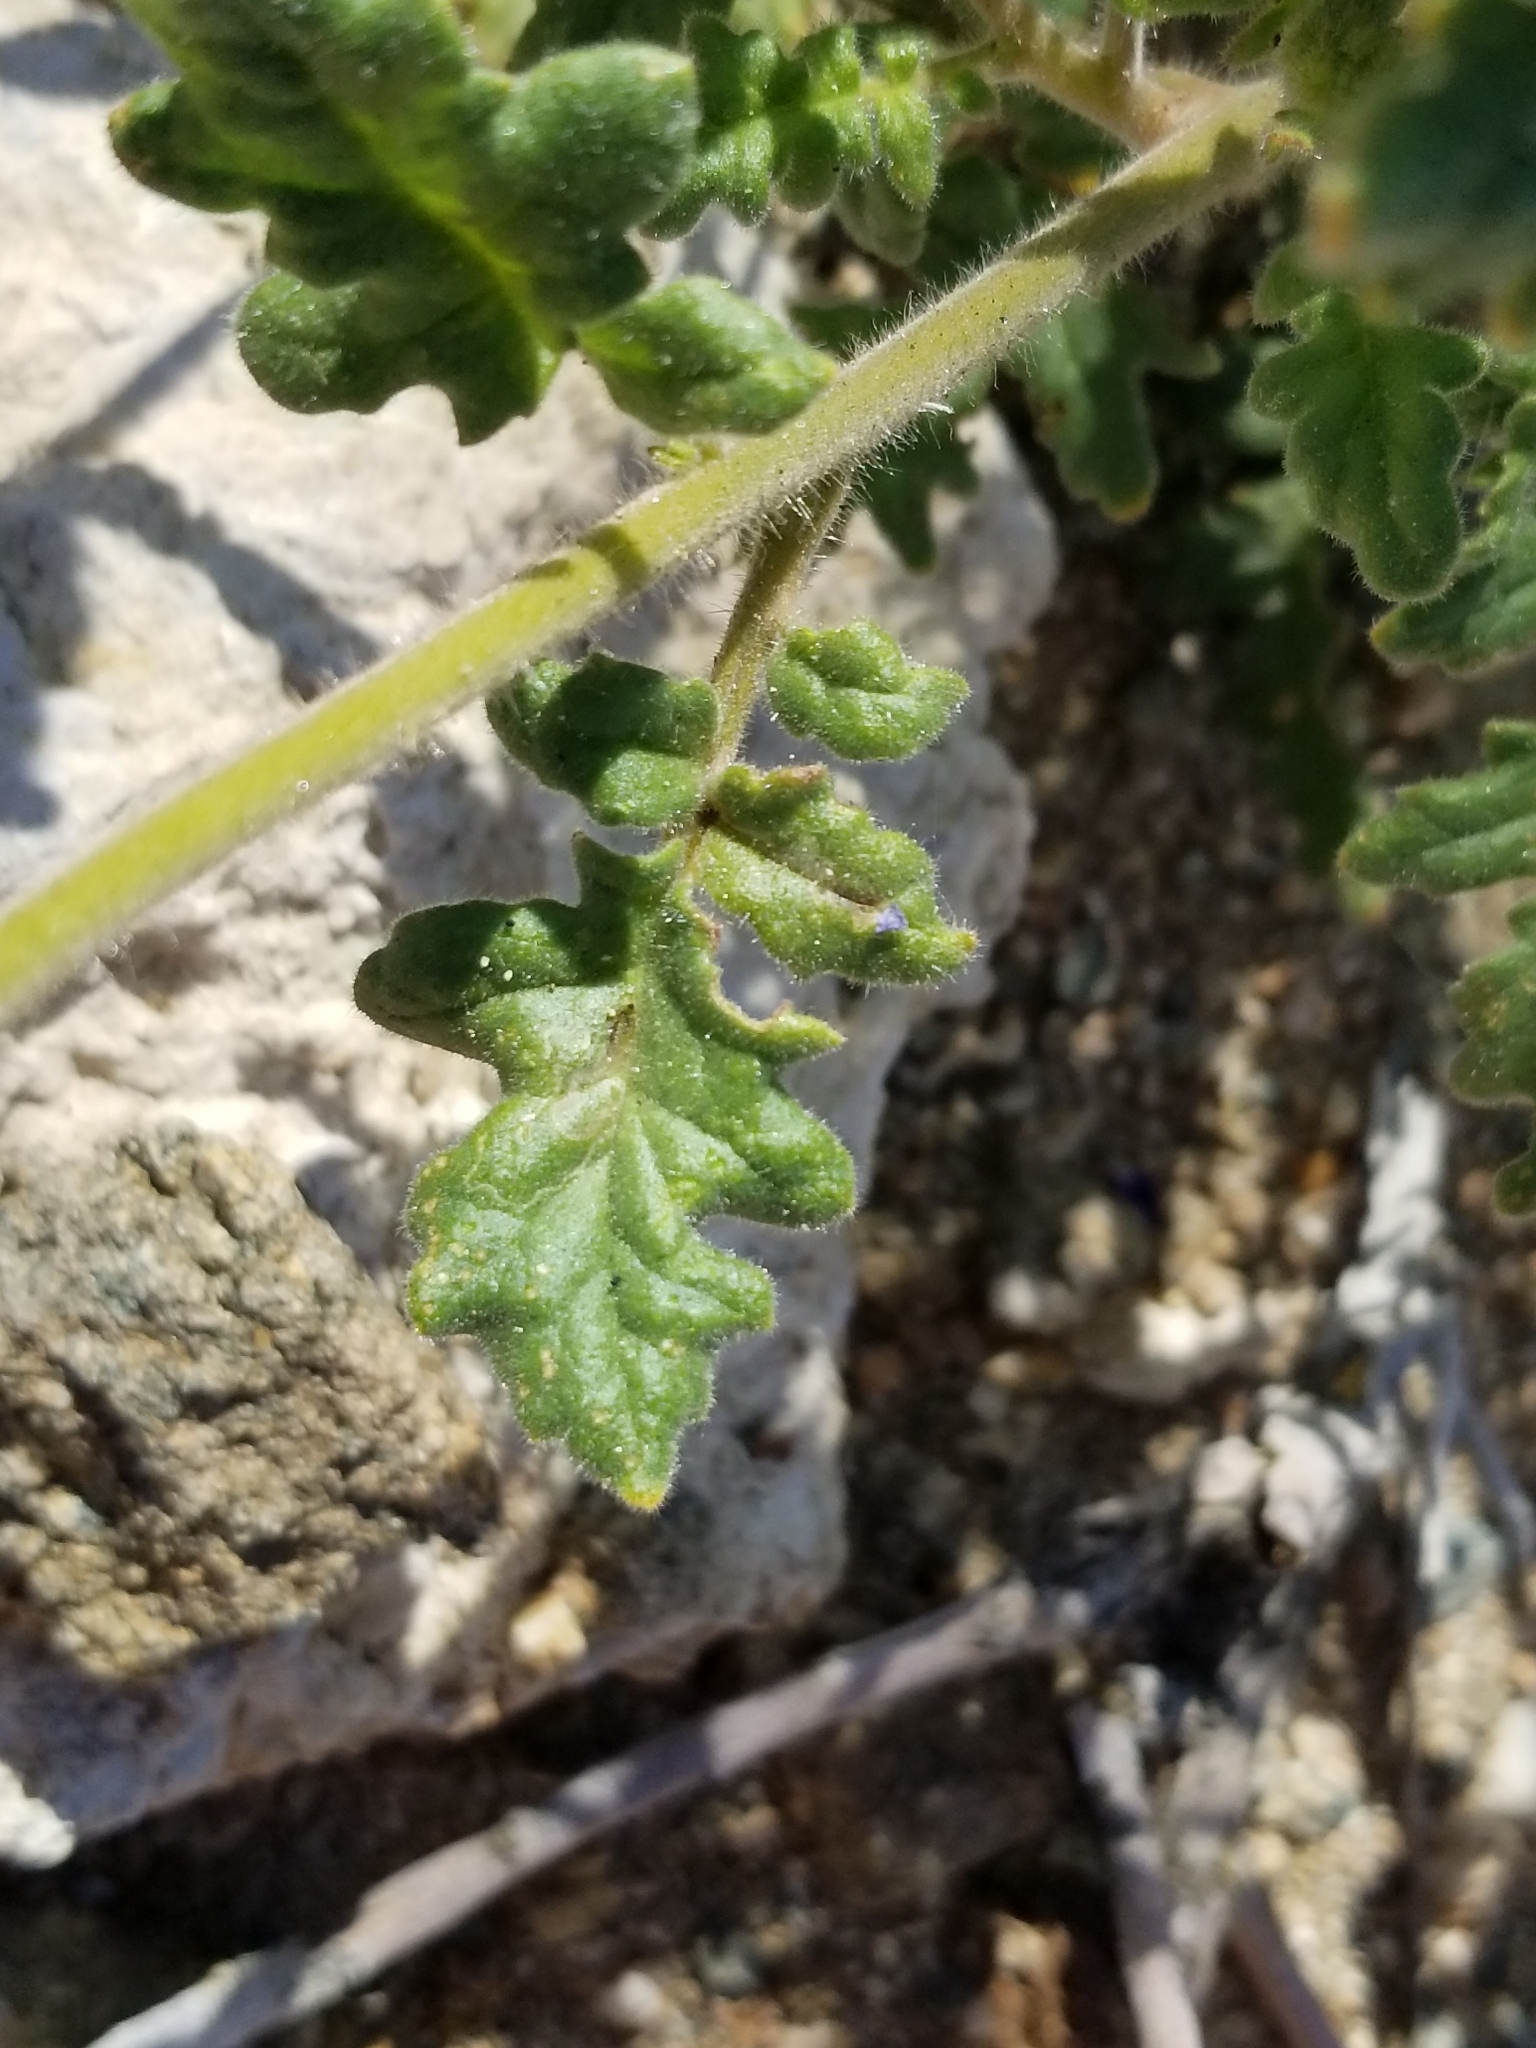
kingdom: Plantae
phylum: Tracheophyta
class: Magnoliopsida
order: Boraginales
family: Hydrophyllaceae
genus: Phacelia
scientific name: Phacelia crenulata
